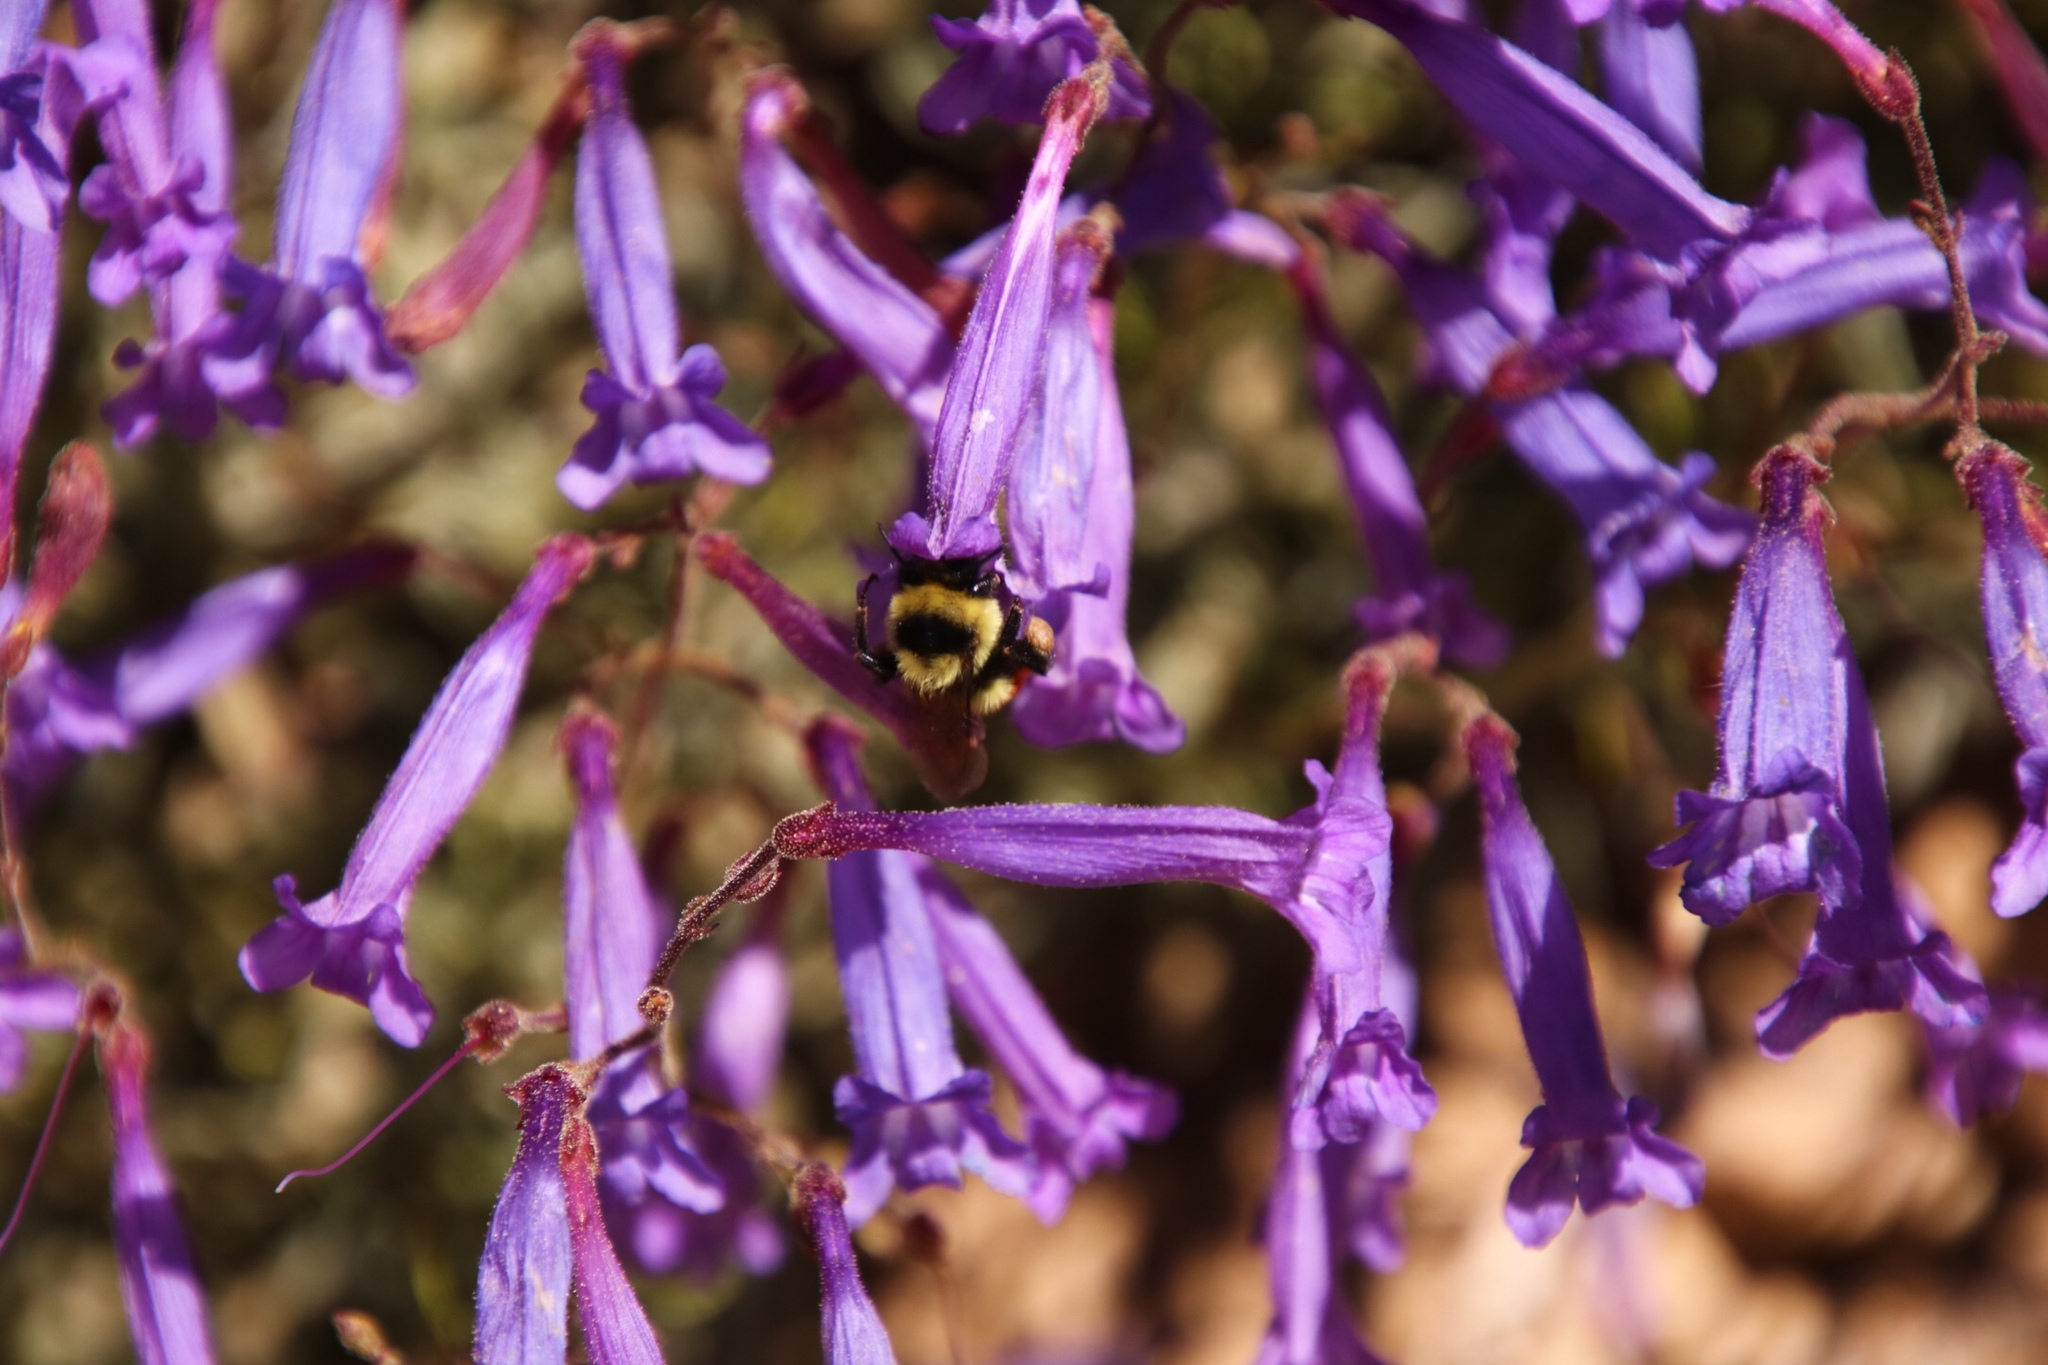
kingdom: Animalia
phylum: Arthropoda
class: Insecta
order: Hymenoptera
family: Apidae
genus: Bombus
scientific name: Bombus huntii
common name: Hunt bumble bee
